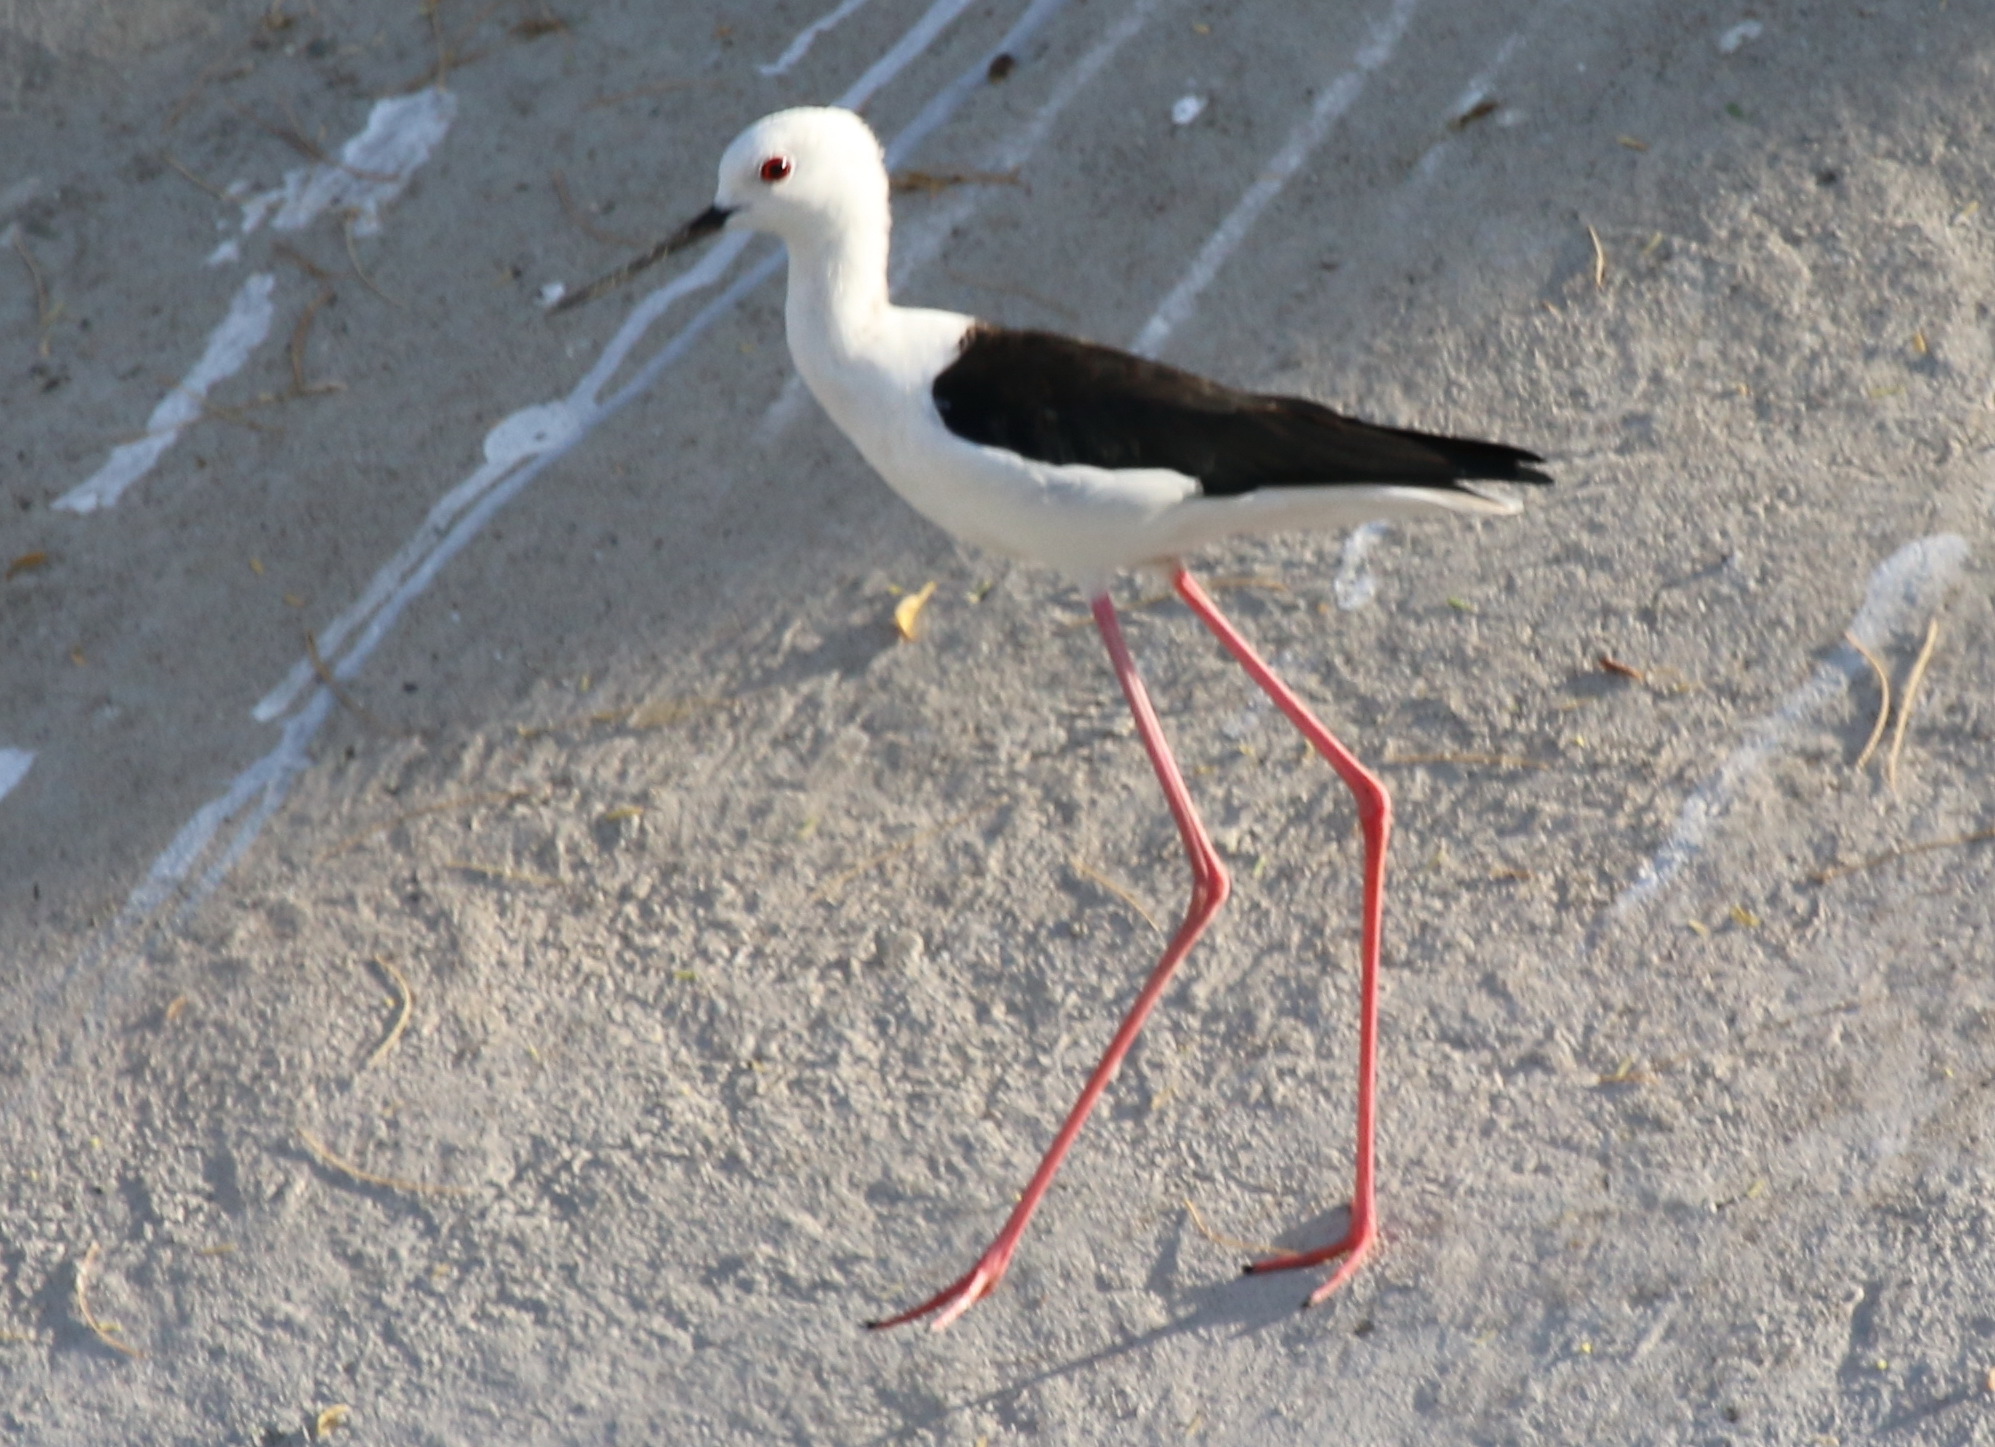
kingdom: Animalia
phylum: Chordata
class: Aves
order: Charadriiformes
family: Recurvirostridae
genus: Himantopus
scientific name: Himantopus himantopus
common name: Black-winged stilt
